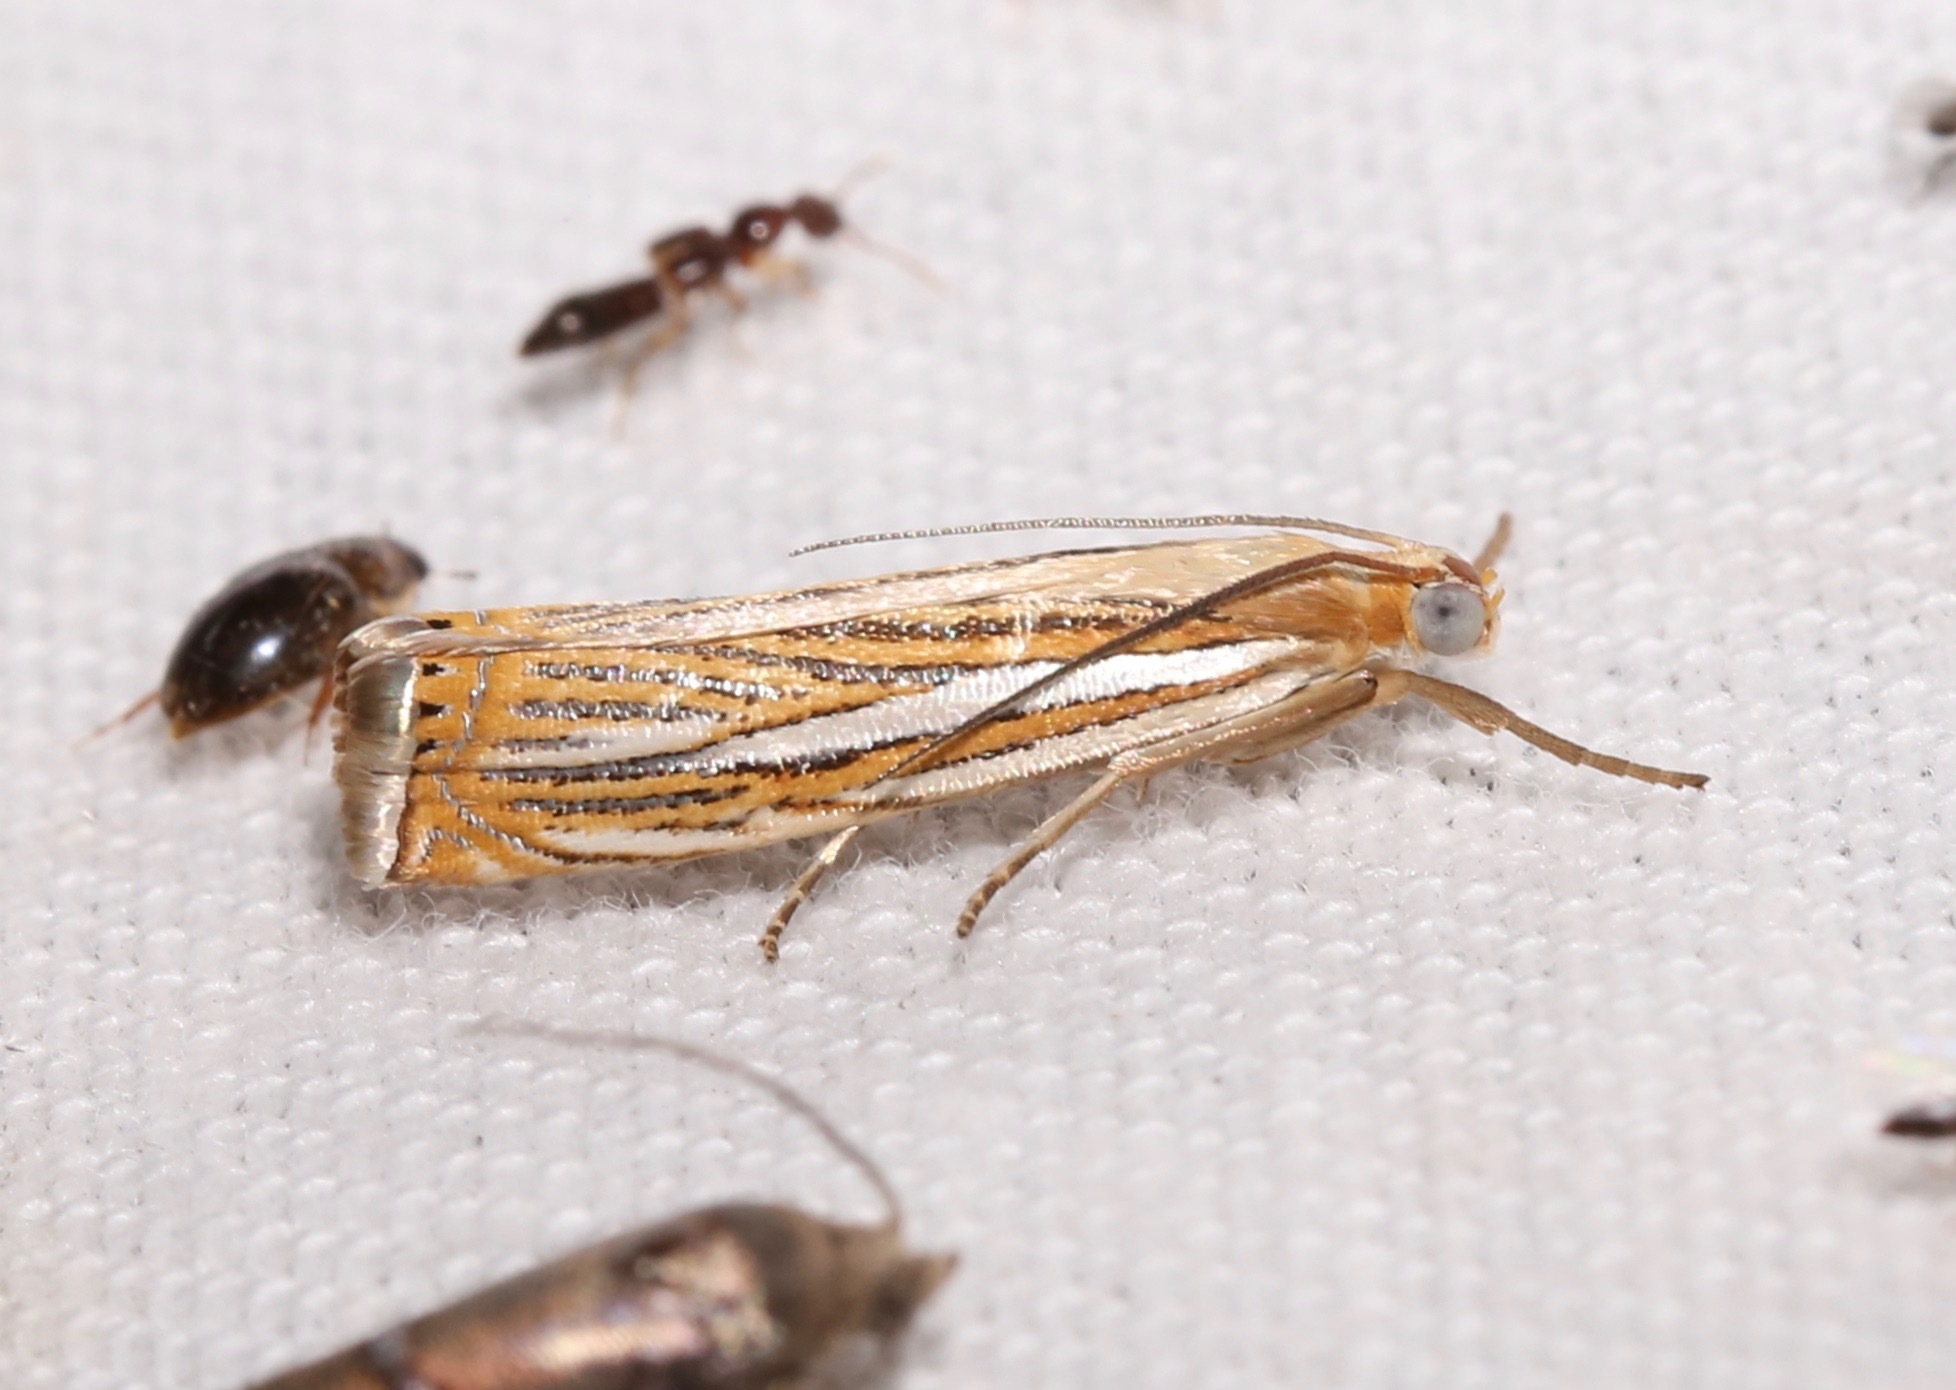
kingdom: Animalia
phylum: Arthropoda
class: Insecta
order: Lepidoptera
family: Crambidae
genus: Crambus
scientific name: Crambus multilinellus
